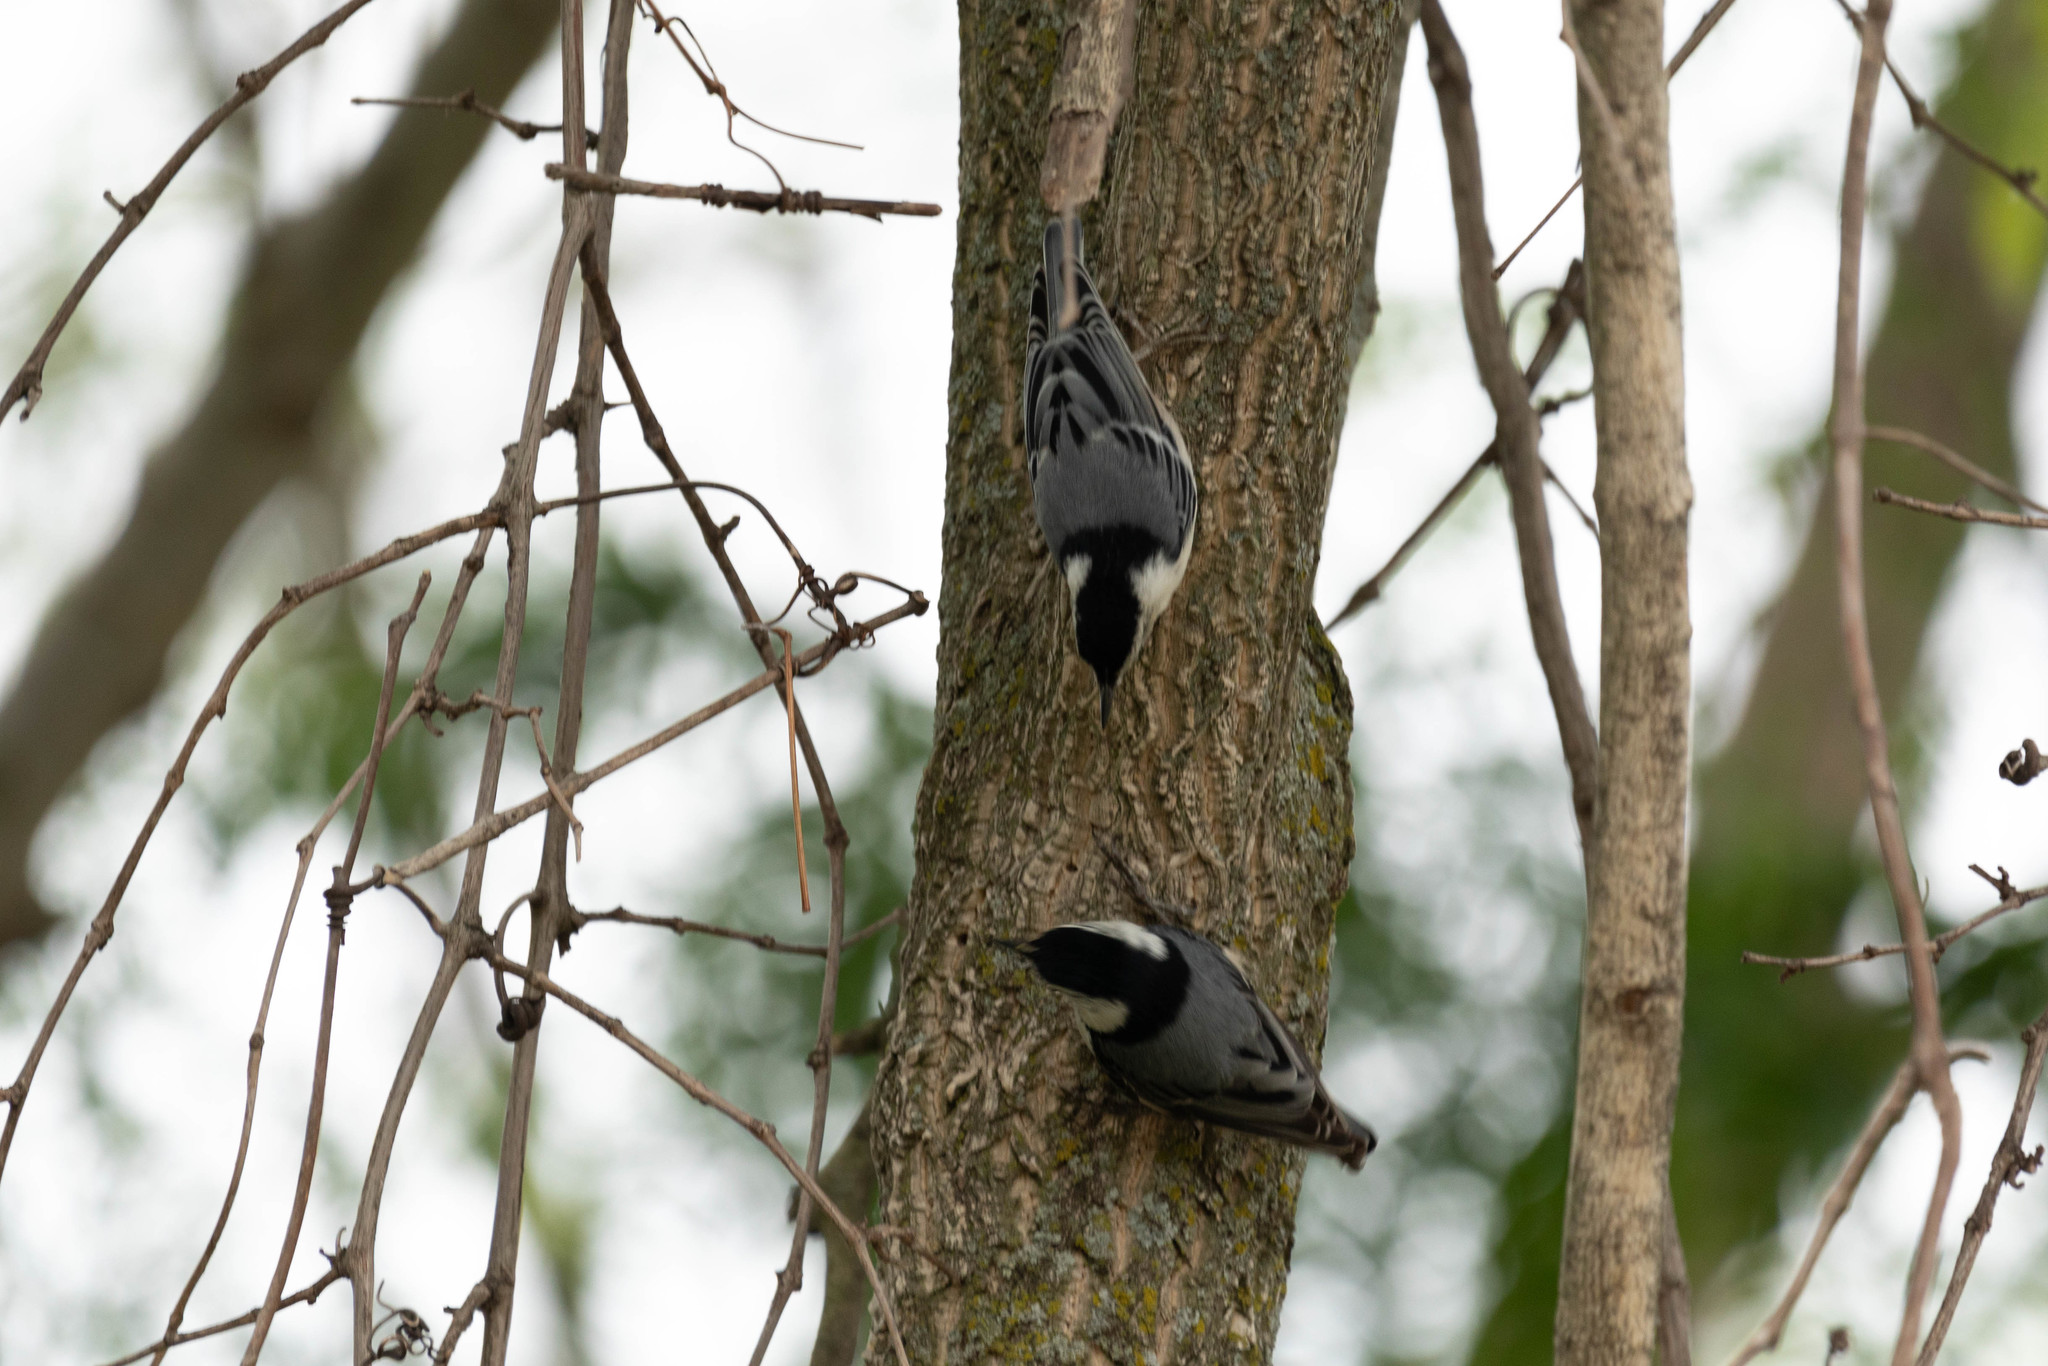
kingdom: Animalia
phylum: Chordata
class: Aves
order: Passeriformes
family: Sittidae
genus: Sitta
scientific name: Sitta carolinensis
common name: White-breasted nuthatch
